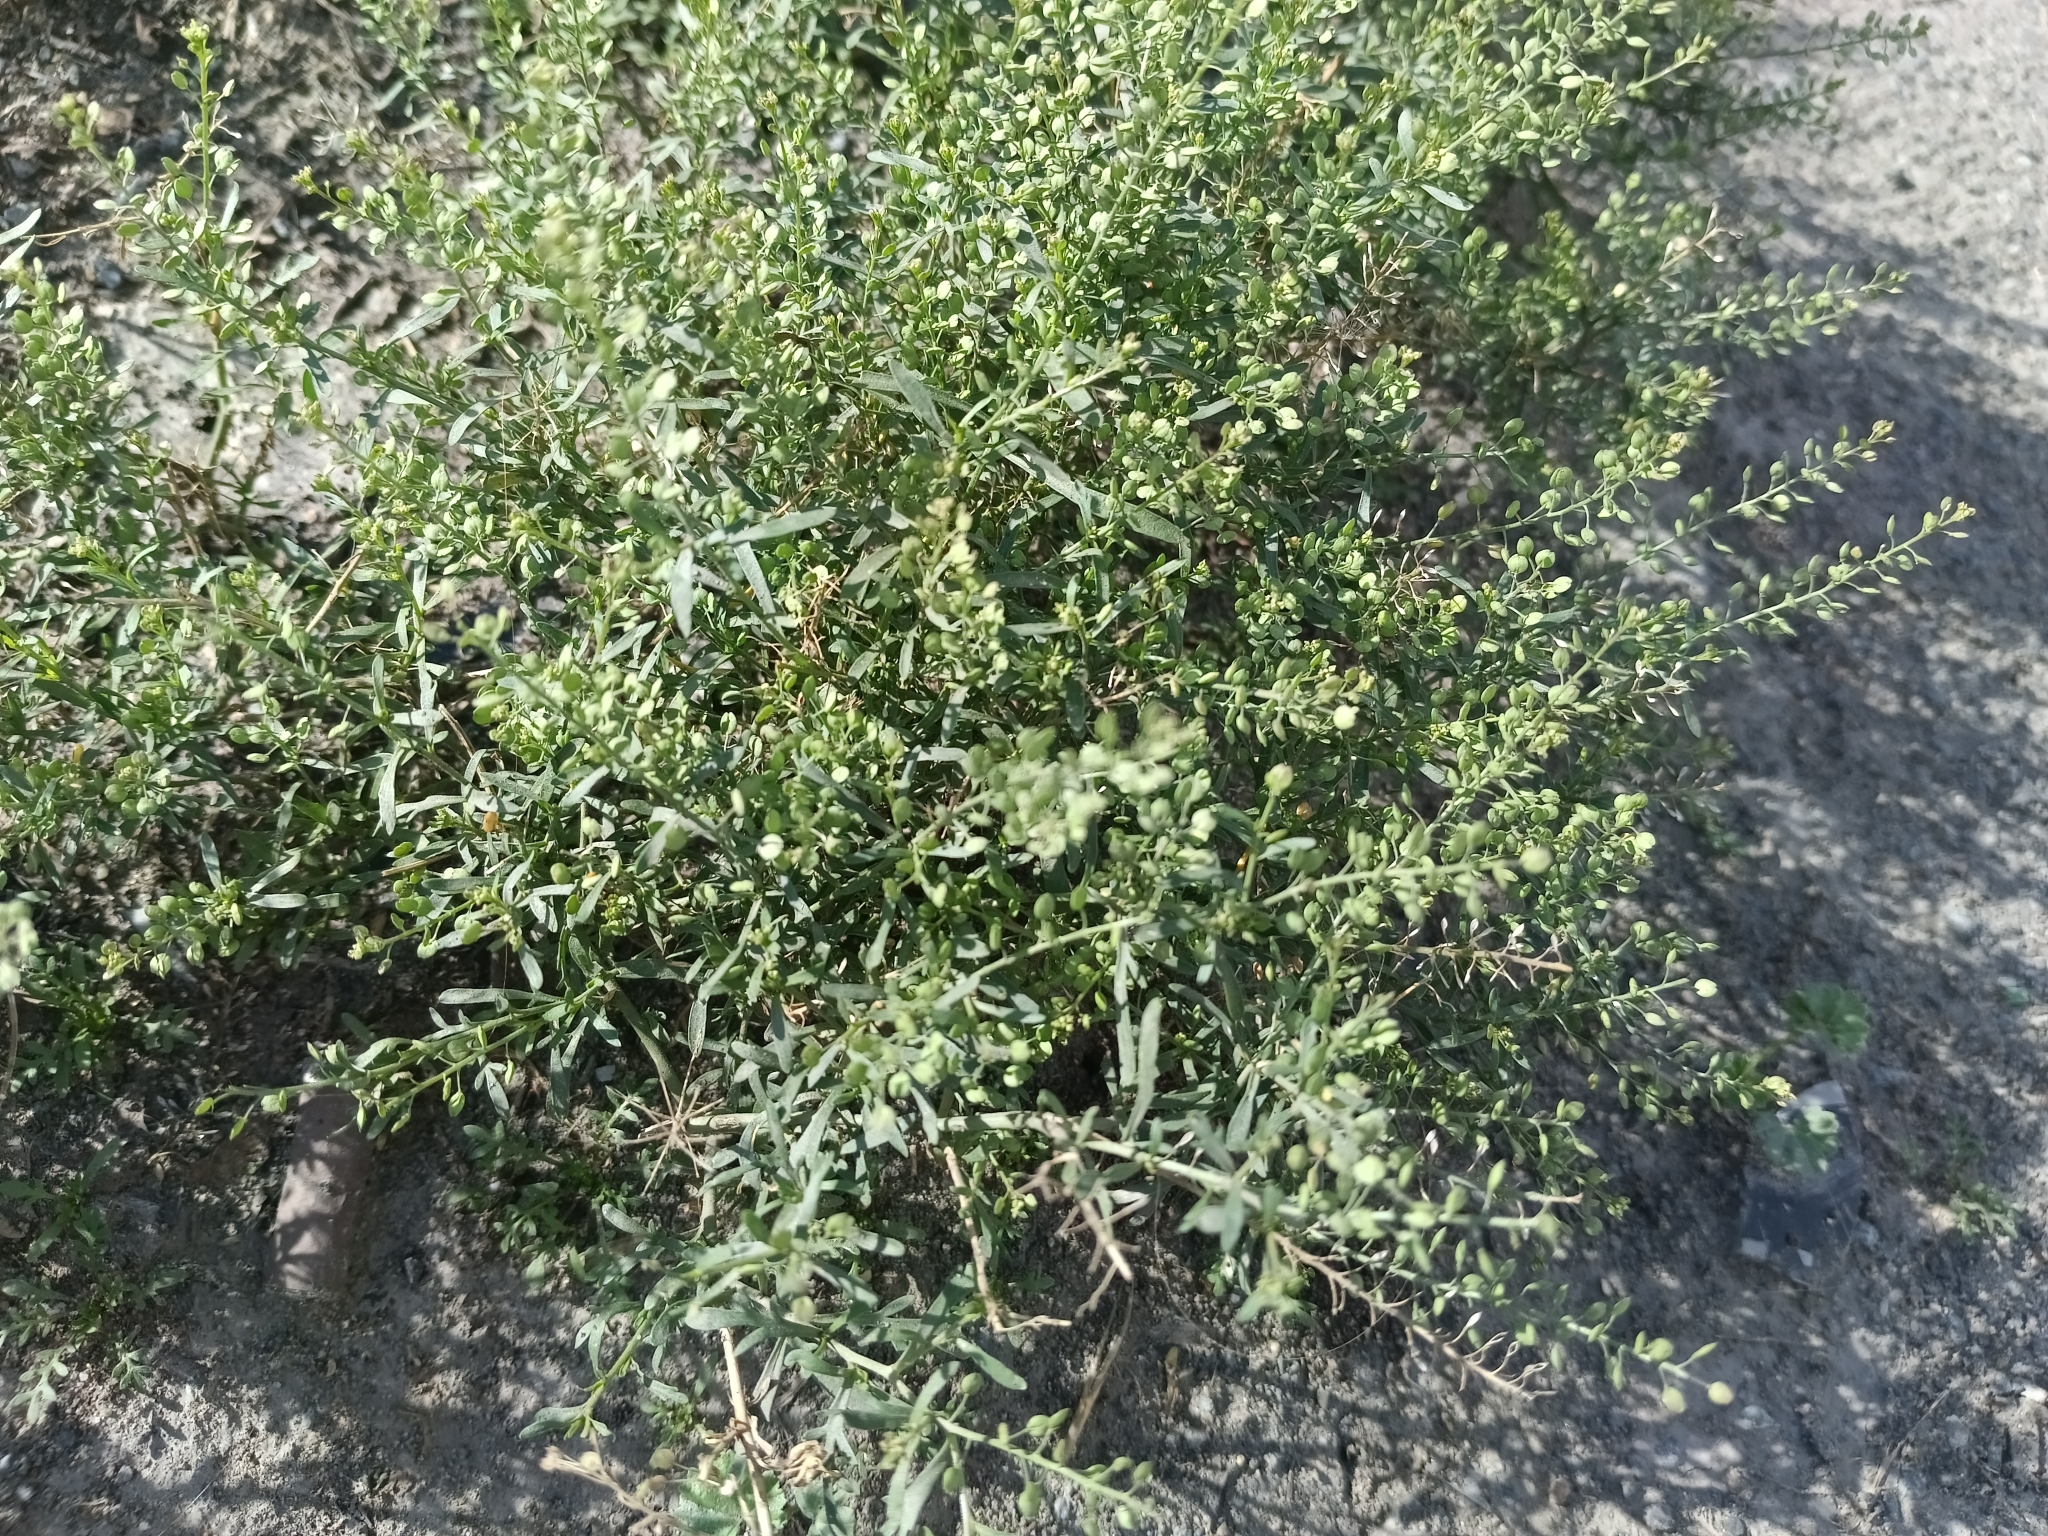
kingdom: Plantae
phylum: Tracheophyta
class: Magnoliopsida
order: Brassicales
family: Brassicaceae
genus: Lepidium
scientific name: Lepidium ruderale
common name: Narrow-leaved pepperwort
